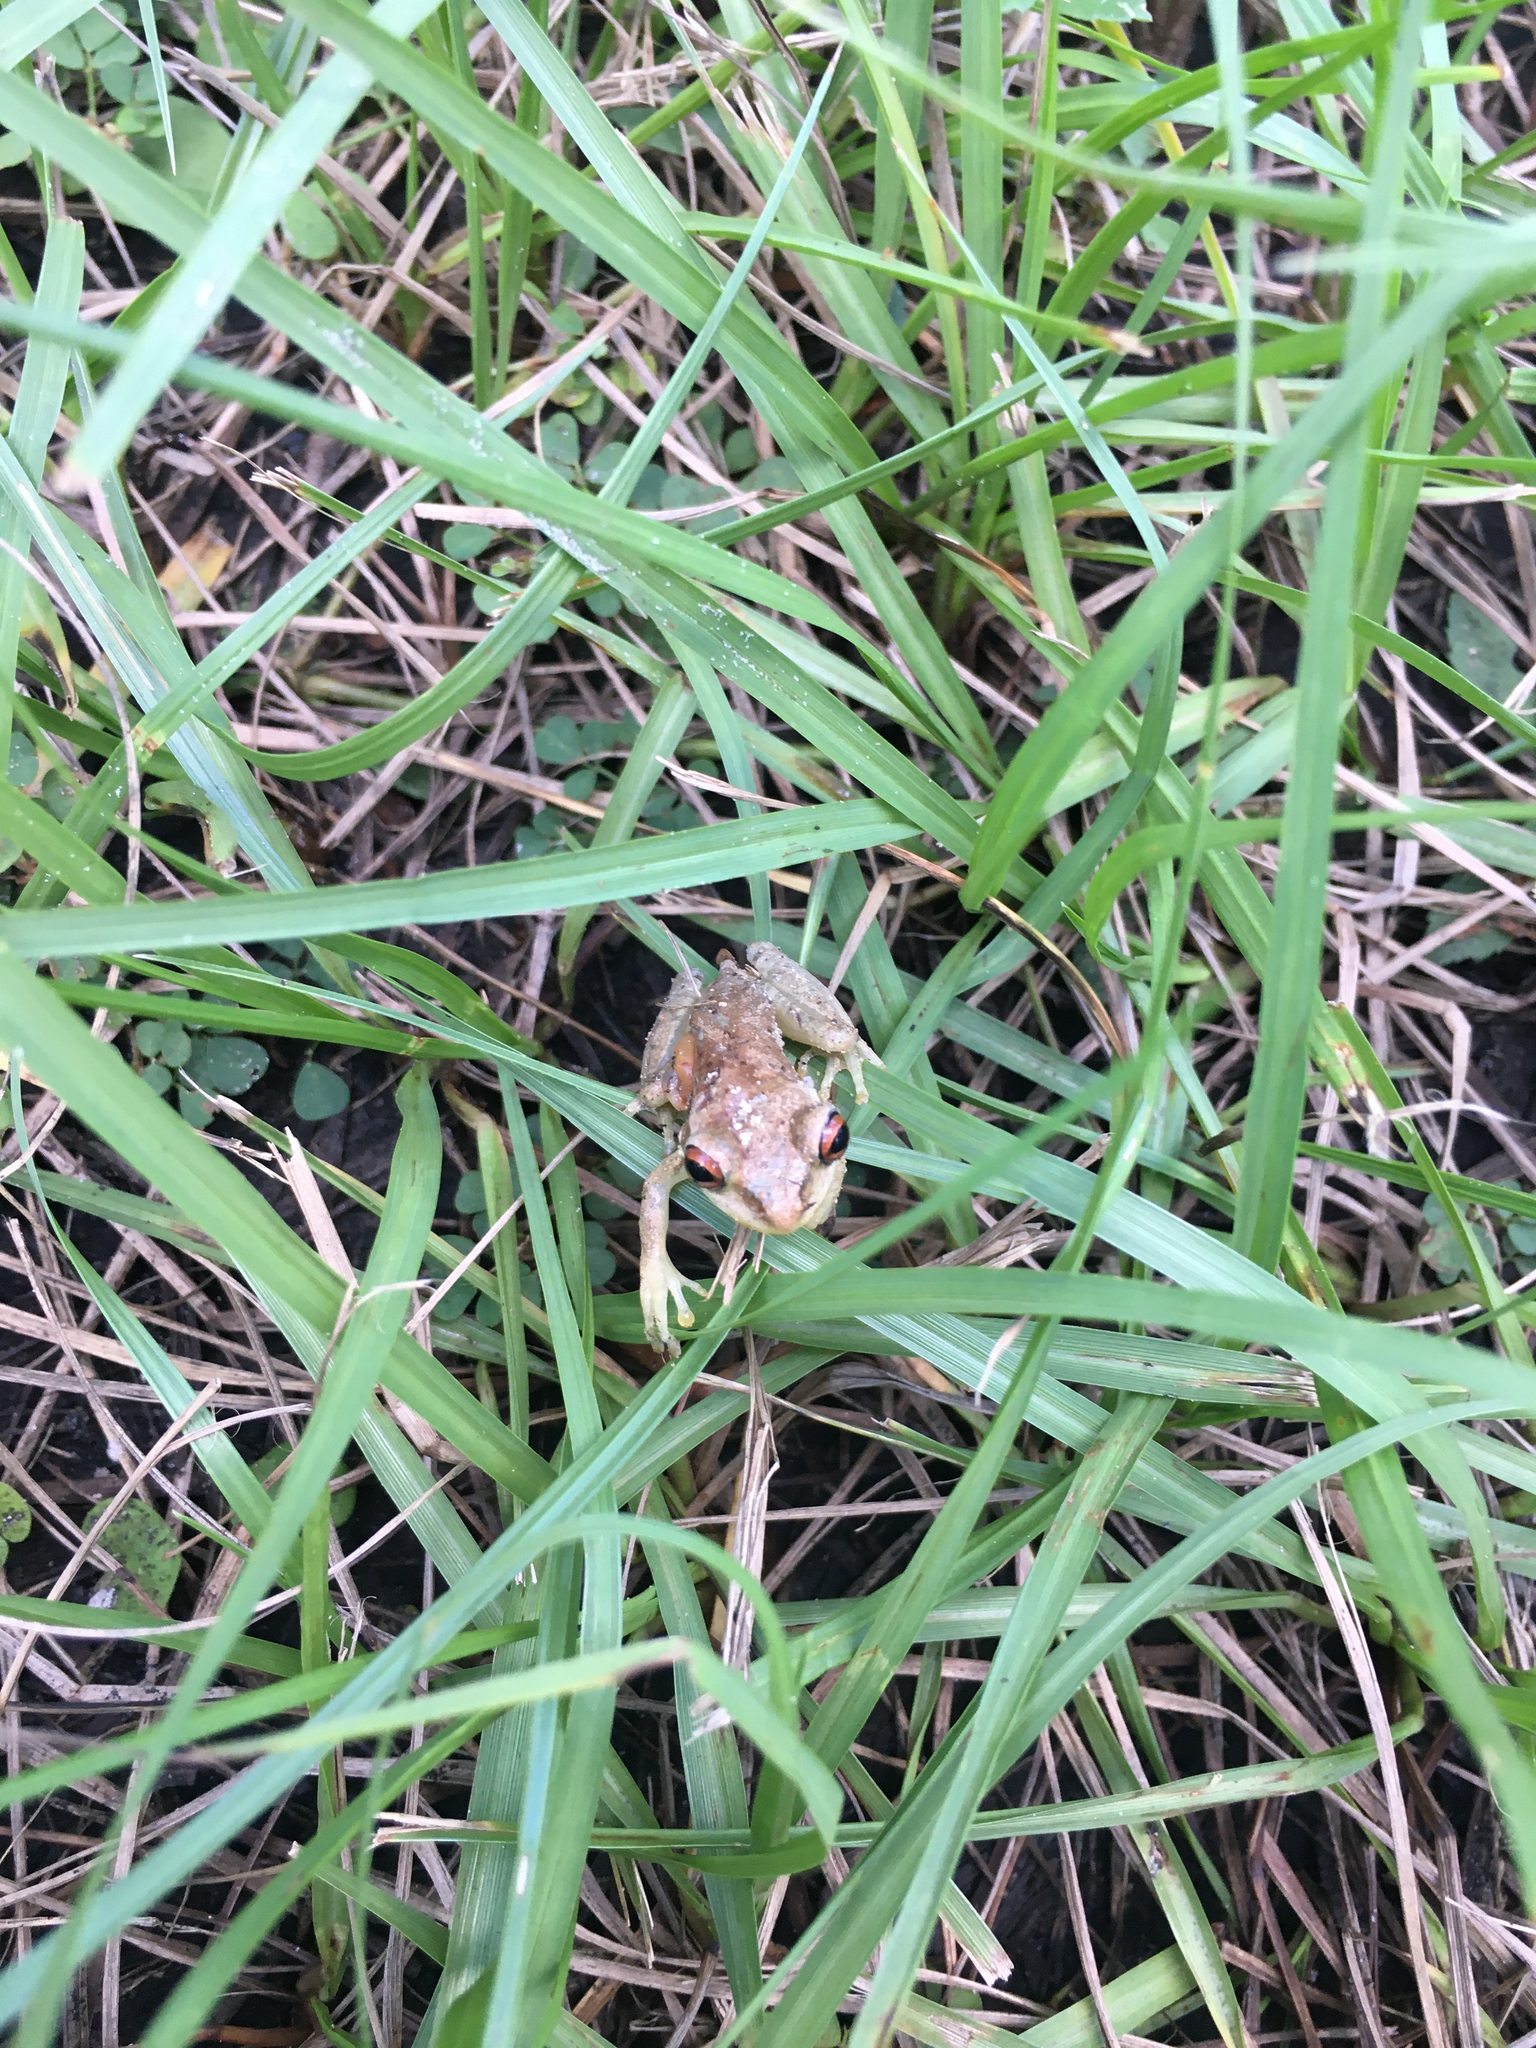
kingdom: Animalia
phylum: Chordata
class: Amphibia
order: Anura
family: Hylidae
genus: Osteopilus
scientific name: Osteopilus septentrionalis
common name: Cuban treefrog
